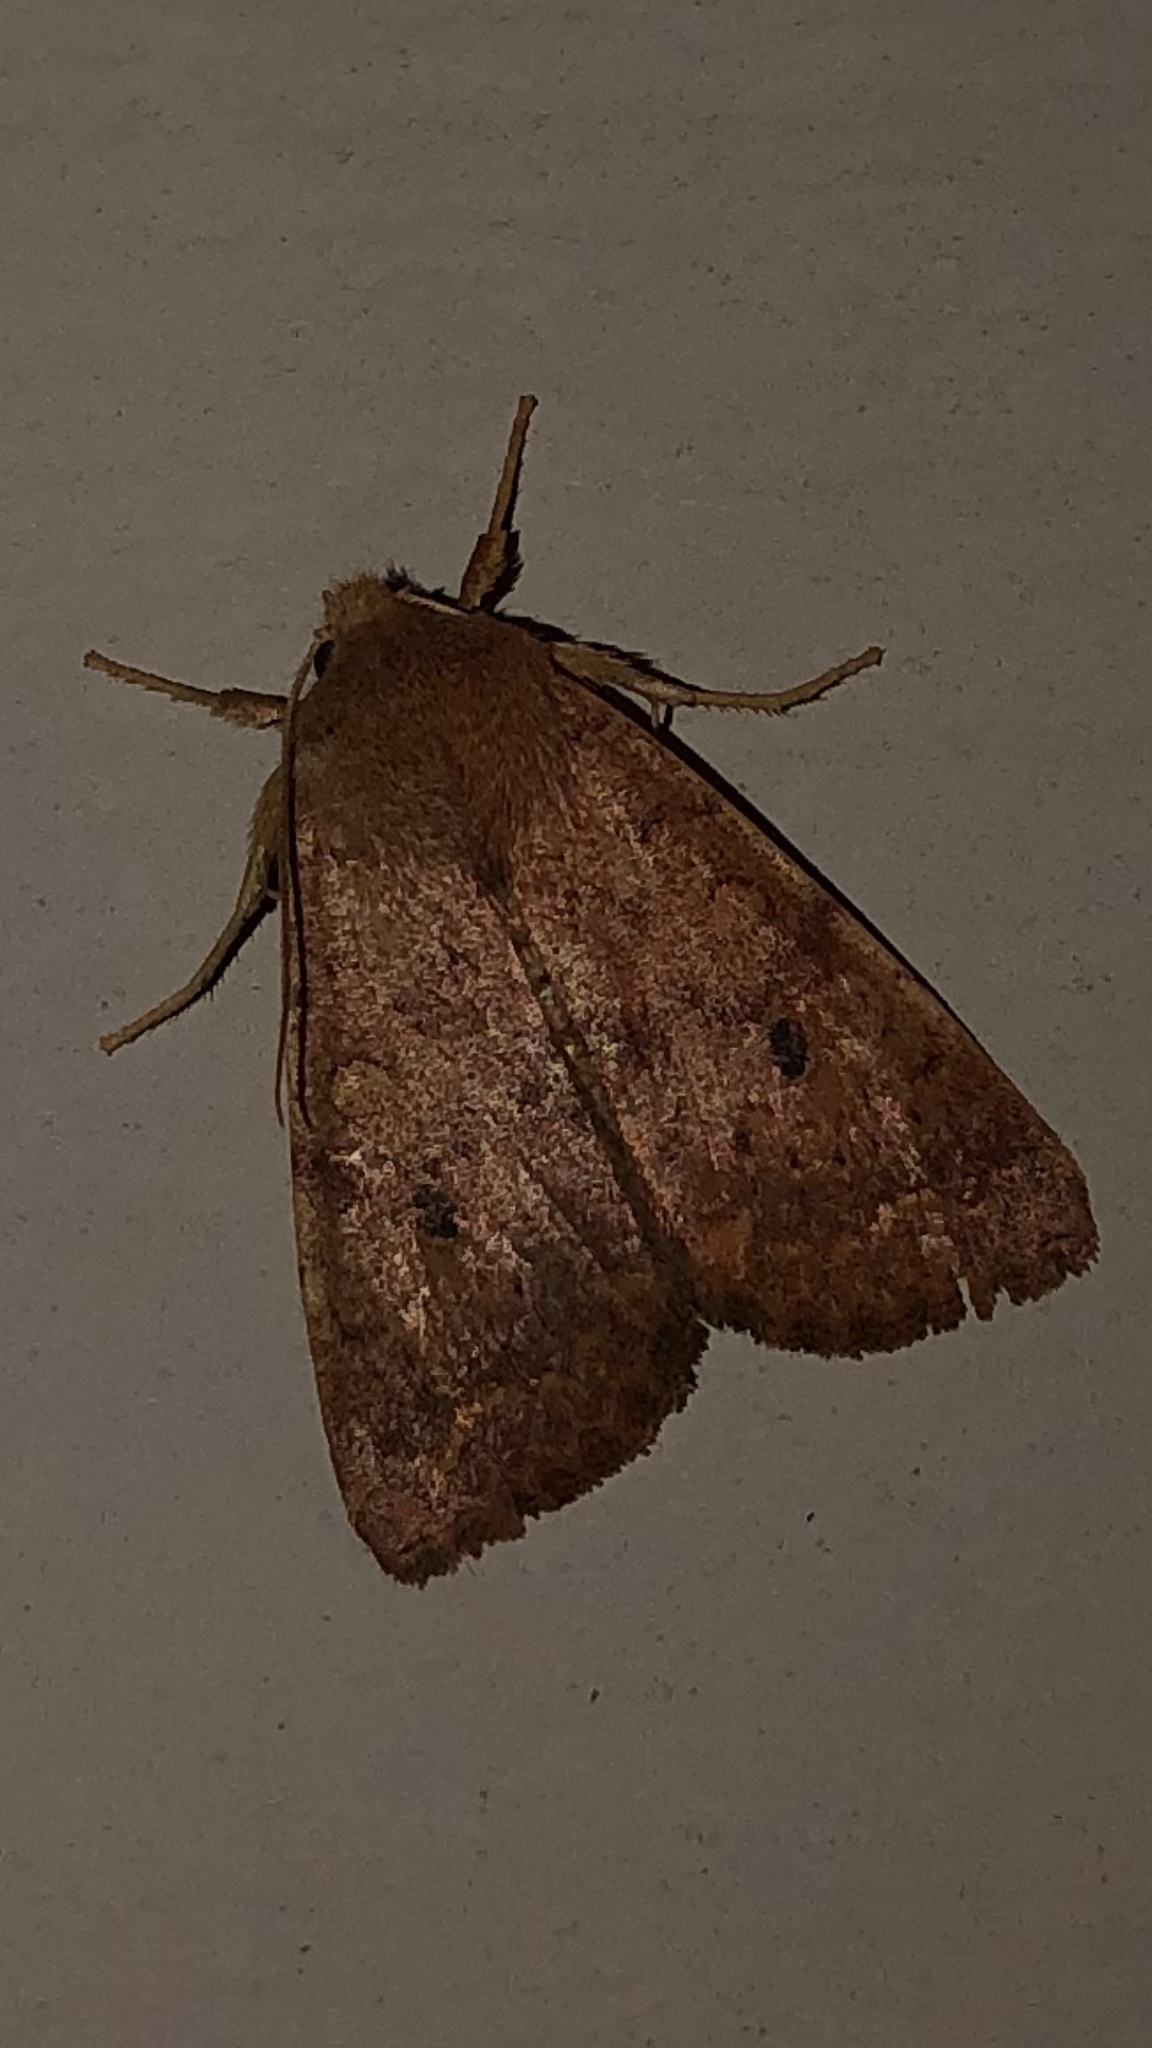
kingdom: Animalia
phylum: Arthropoda
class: Insecta
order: Lepidoptera
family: Noctuidae
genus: Agrochola
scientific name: Agrochola bicolorago
